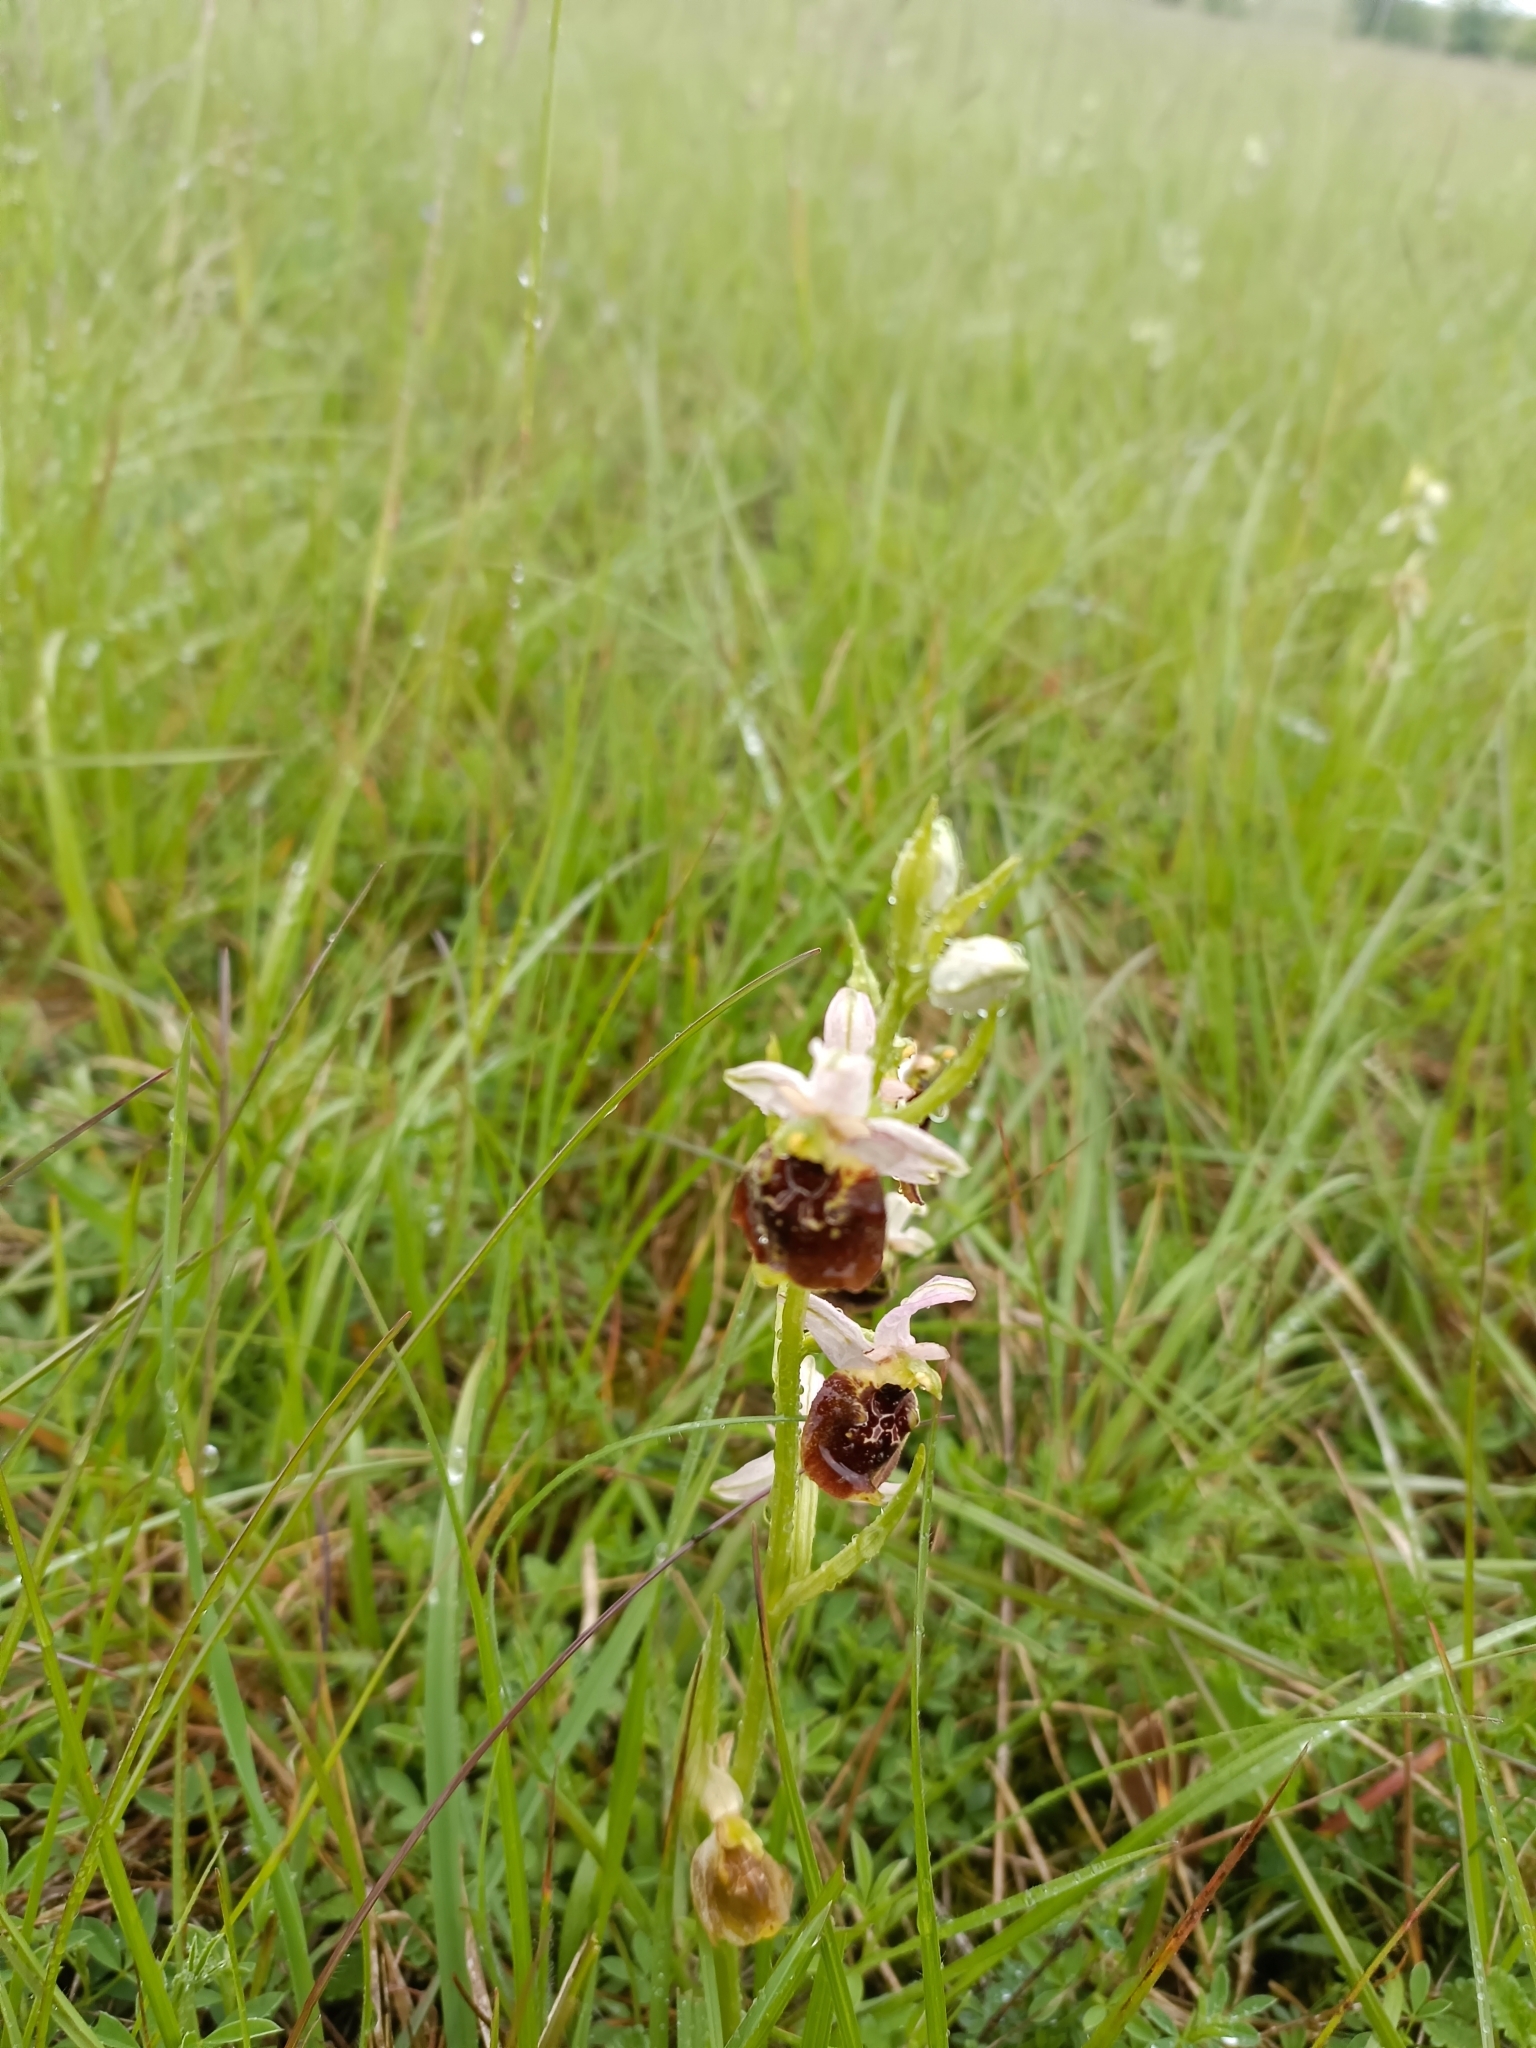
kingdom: Plantae
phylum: Tracheophyta
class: Liliopsida
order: Asparagales
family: Orchidaceae
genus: Ophrys
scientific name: Ophrys holosericea
